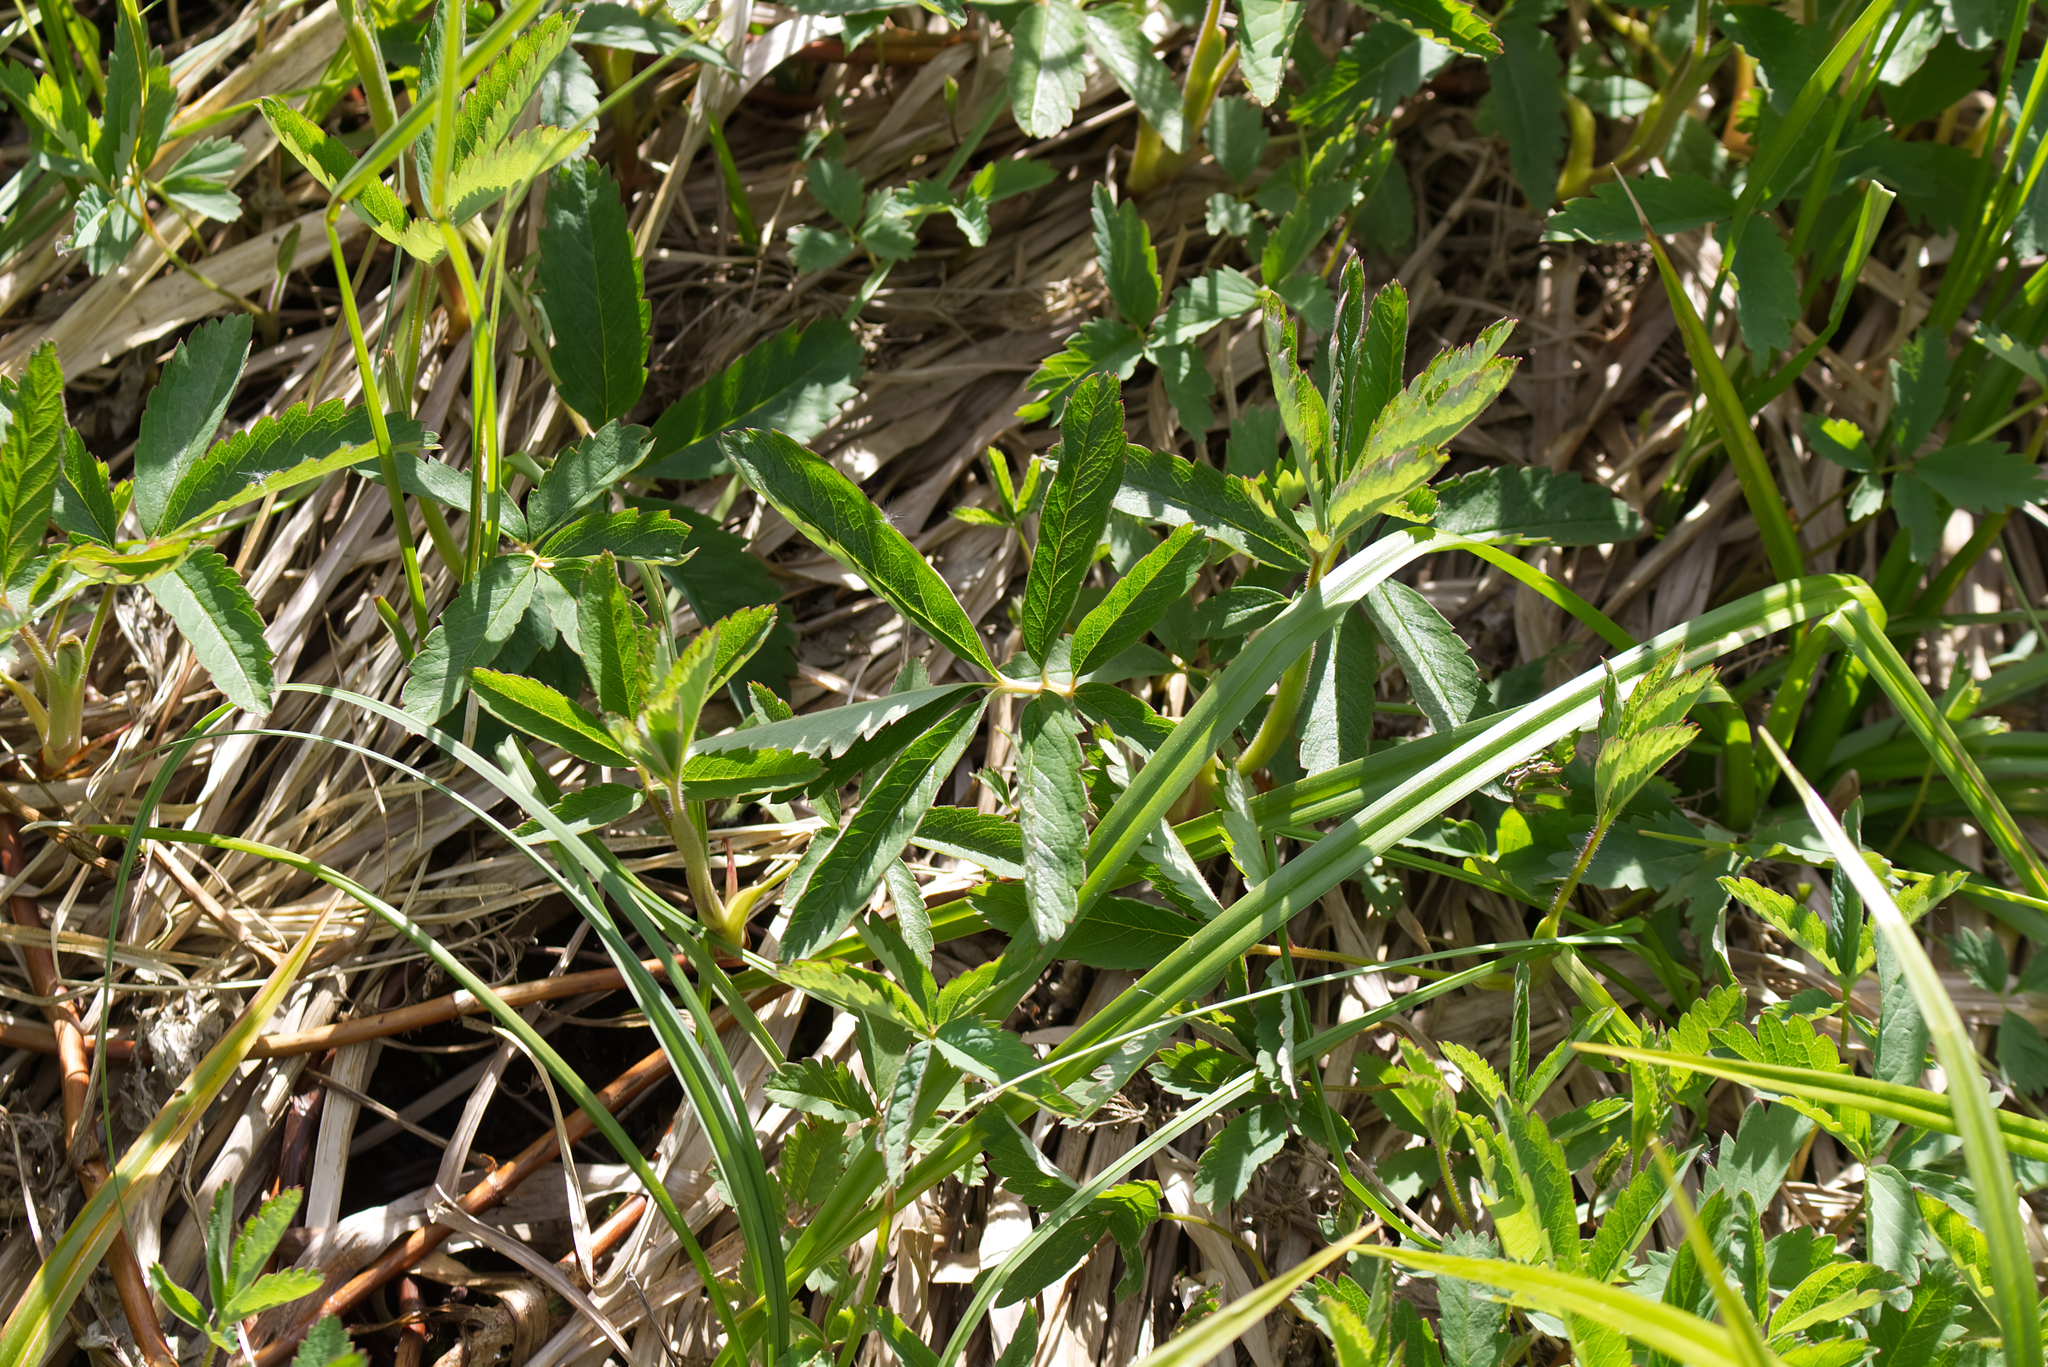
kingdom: Plantae
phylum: Tracheophyta
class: Magnoliopsida
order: Rosales
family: Rosaceae
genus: Comarum
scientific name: Comarum palustre
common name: Marsh cinquefoil
